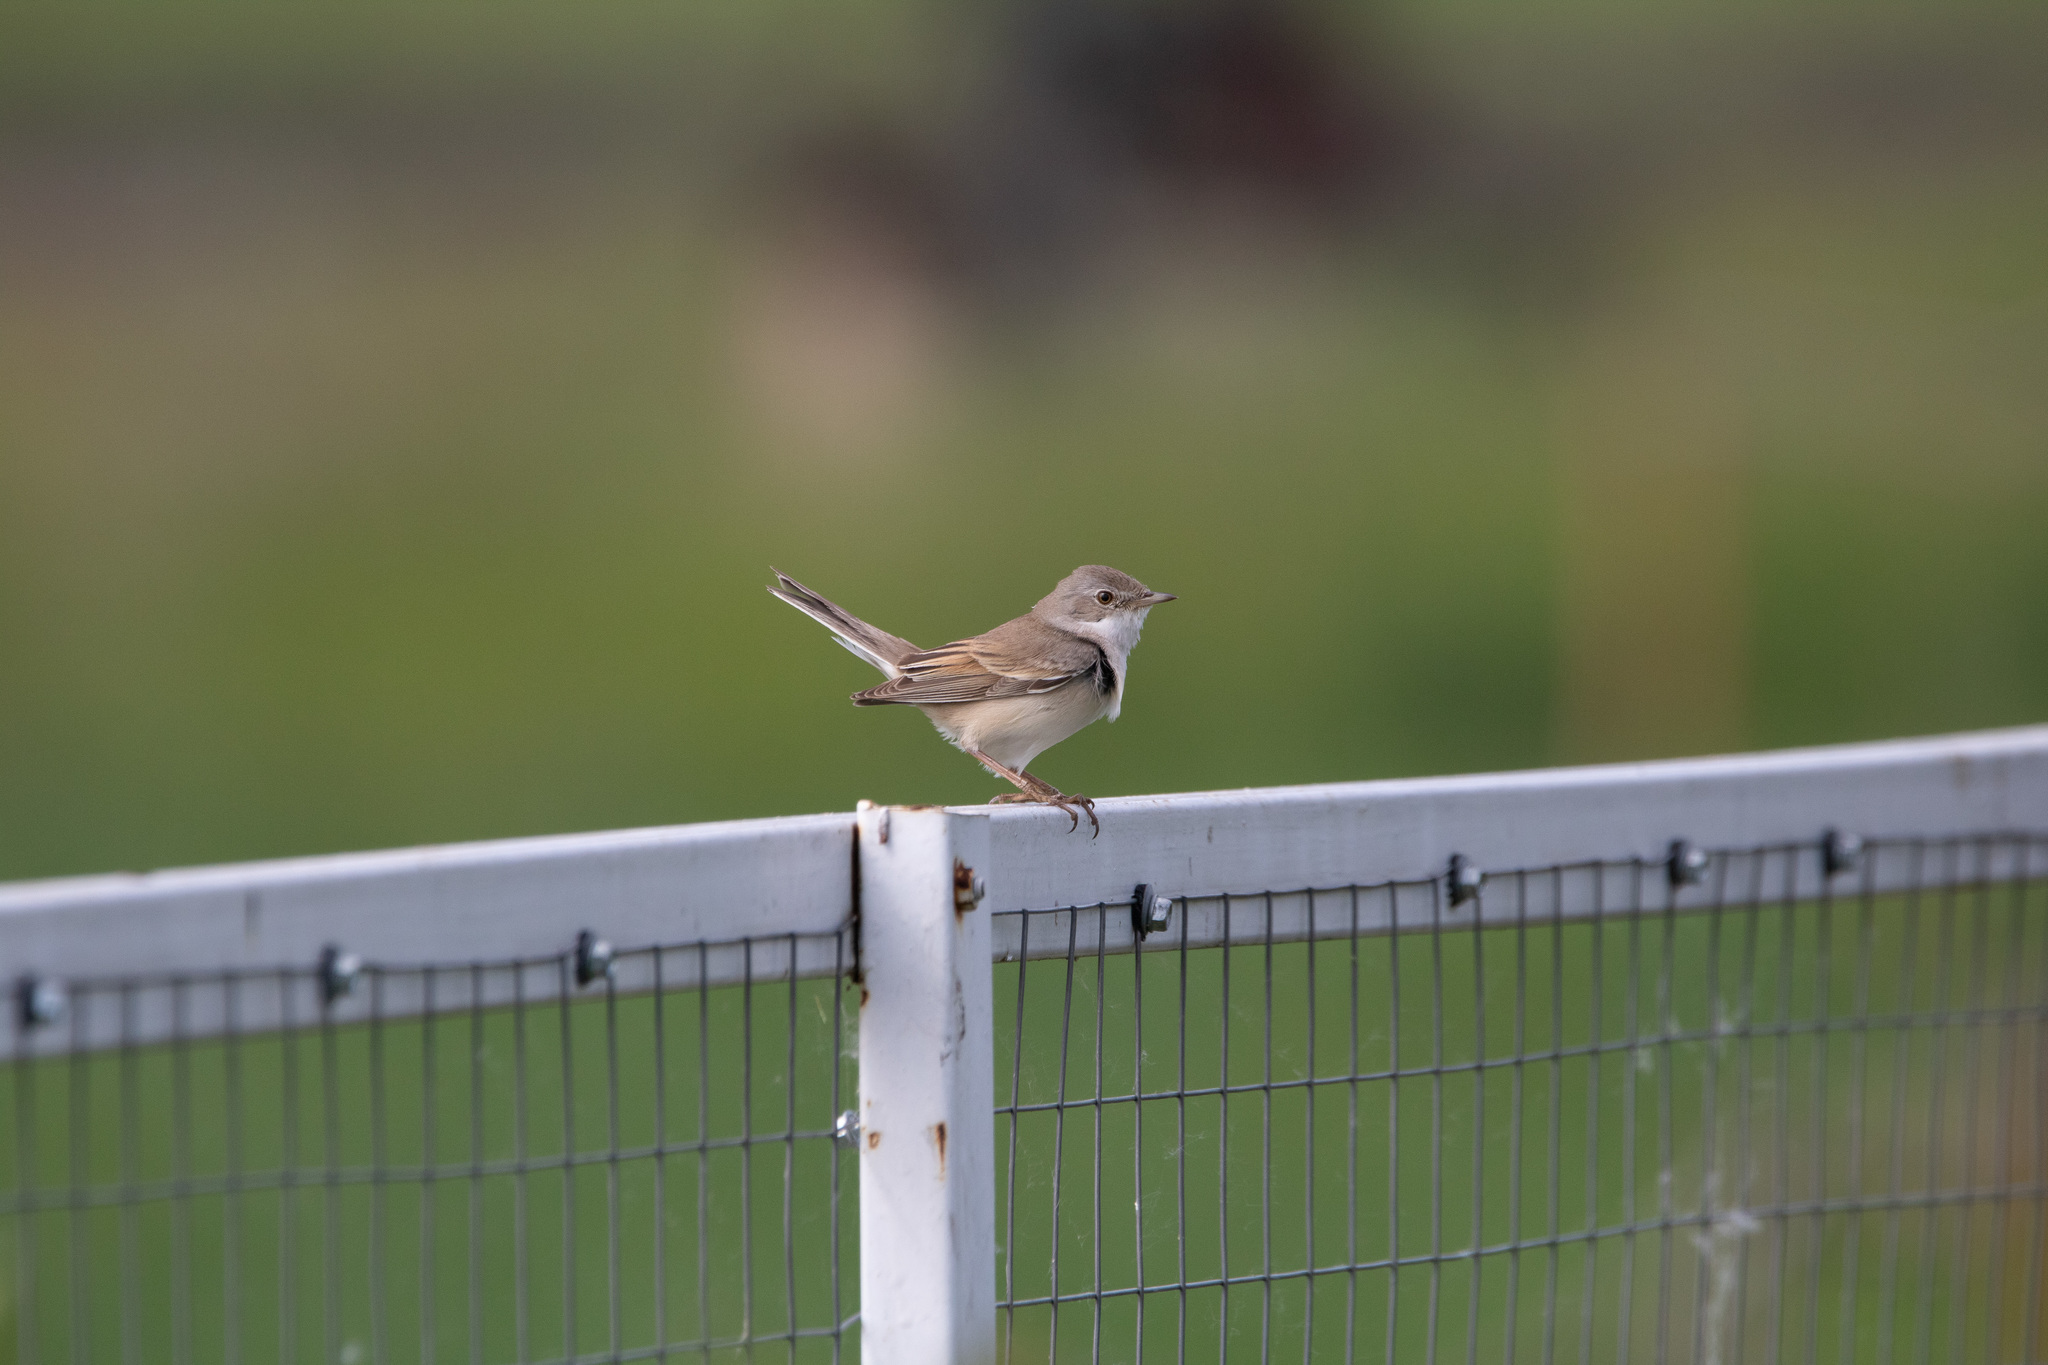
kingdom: Animalia
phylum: Chordata
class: Aves
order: Passeriformes
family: Sylviidae
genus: Sylvia
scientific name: Sylvia communis
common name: Common whitethroat
